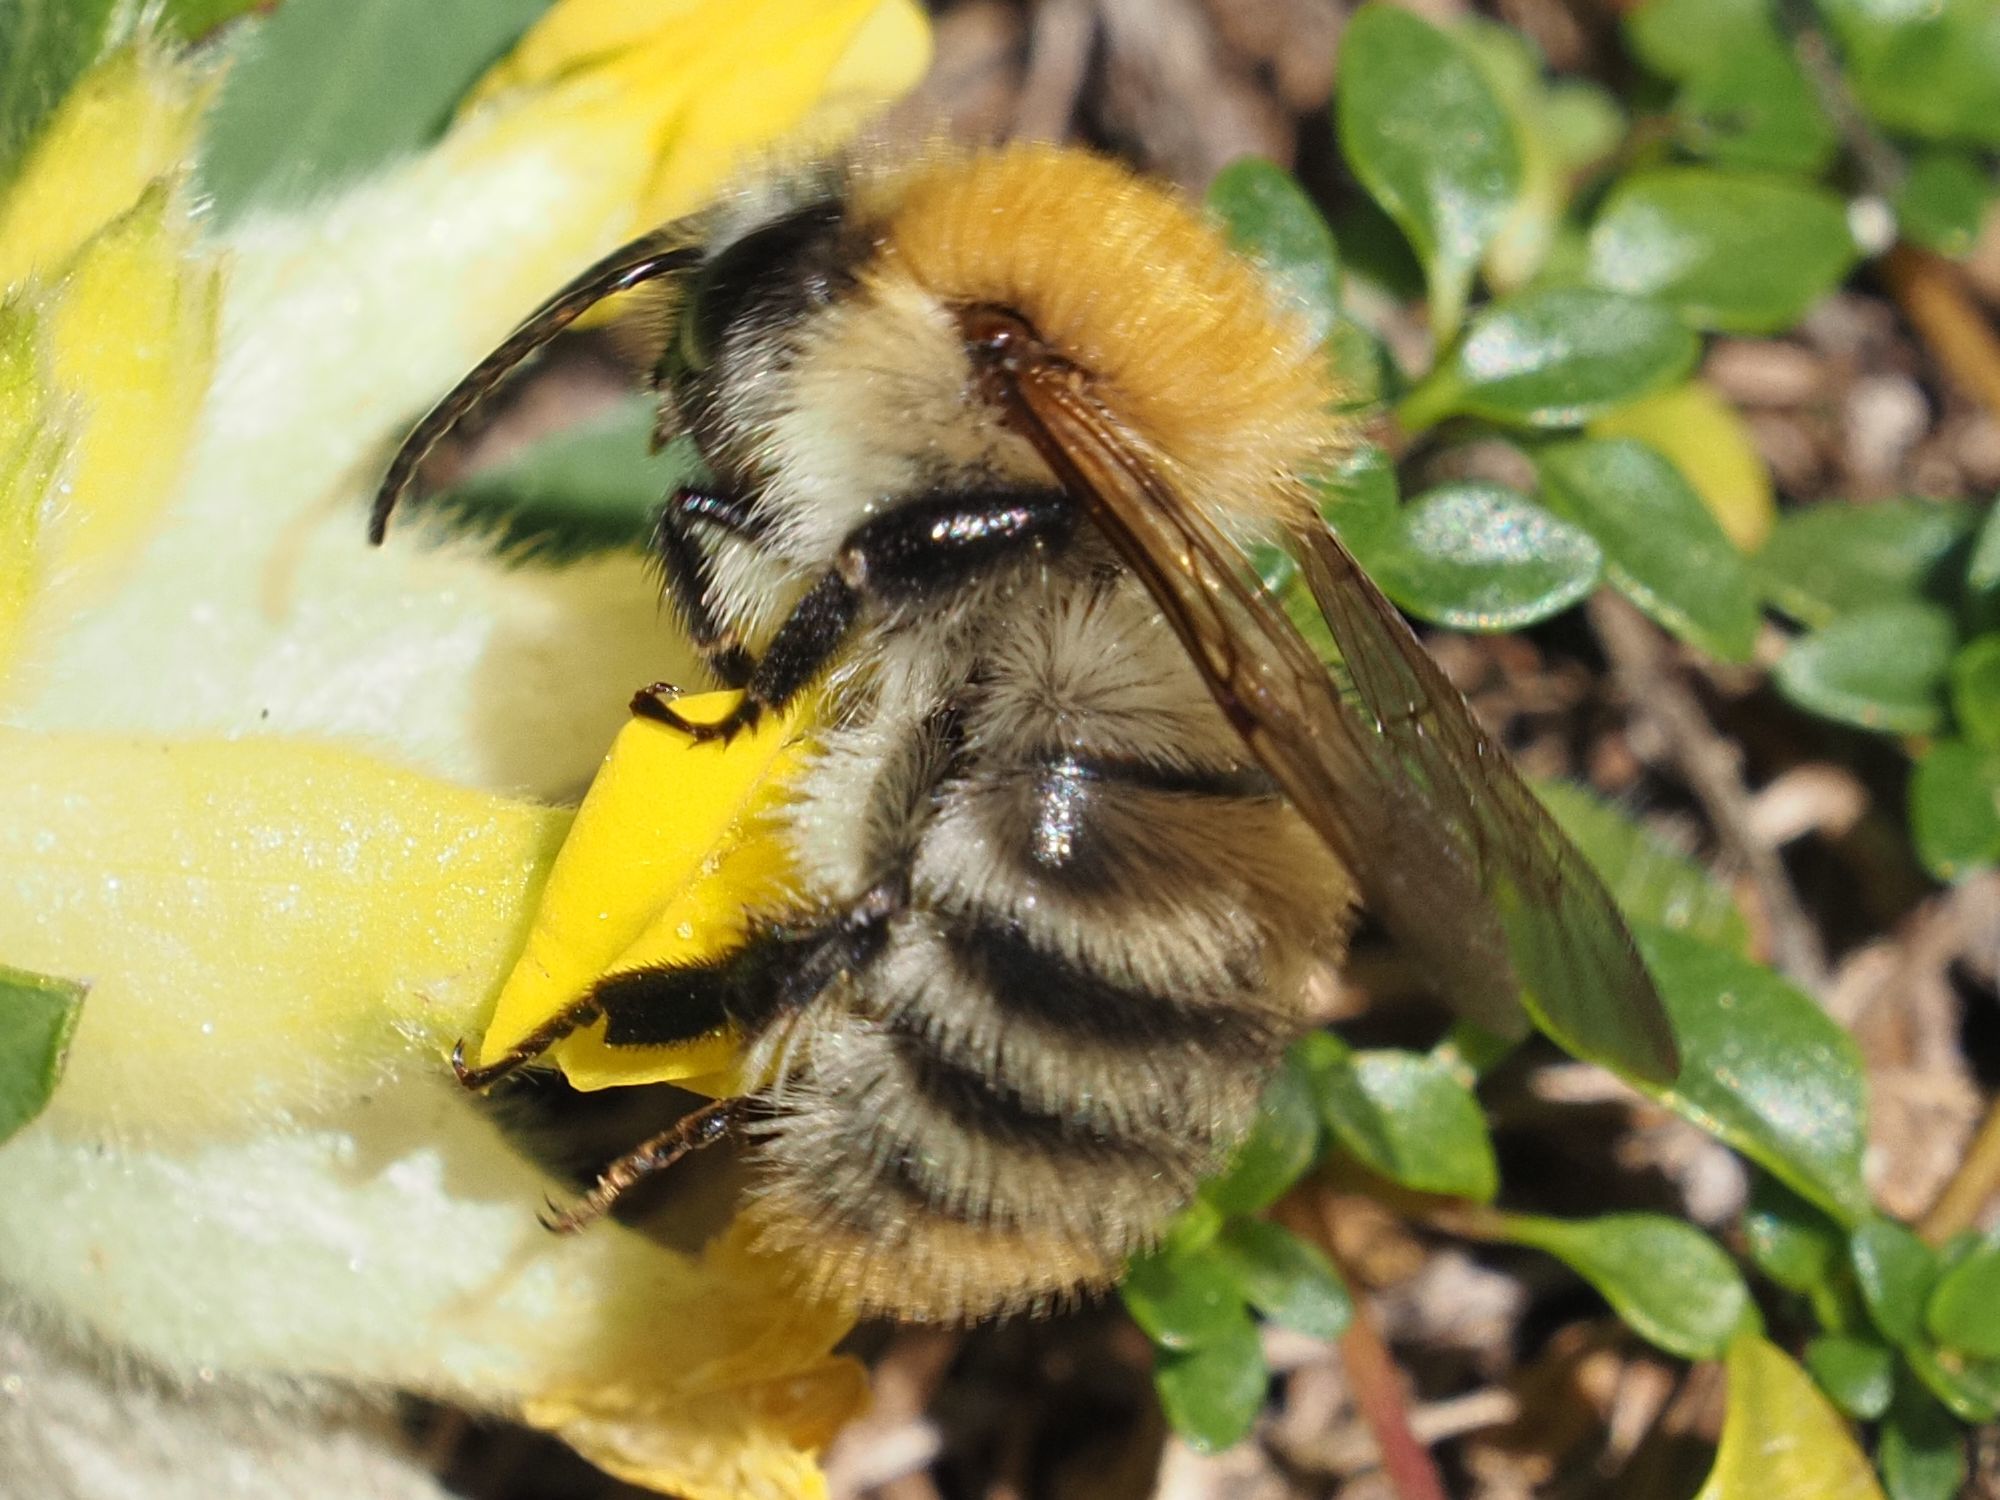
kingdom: Animalia
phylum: Arthropoda
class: Insecta
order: Hymenoptera
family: Apidae
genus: Bombus
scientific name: Bombus pascuorum
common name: Common carder bee
